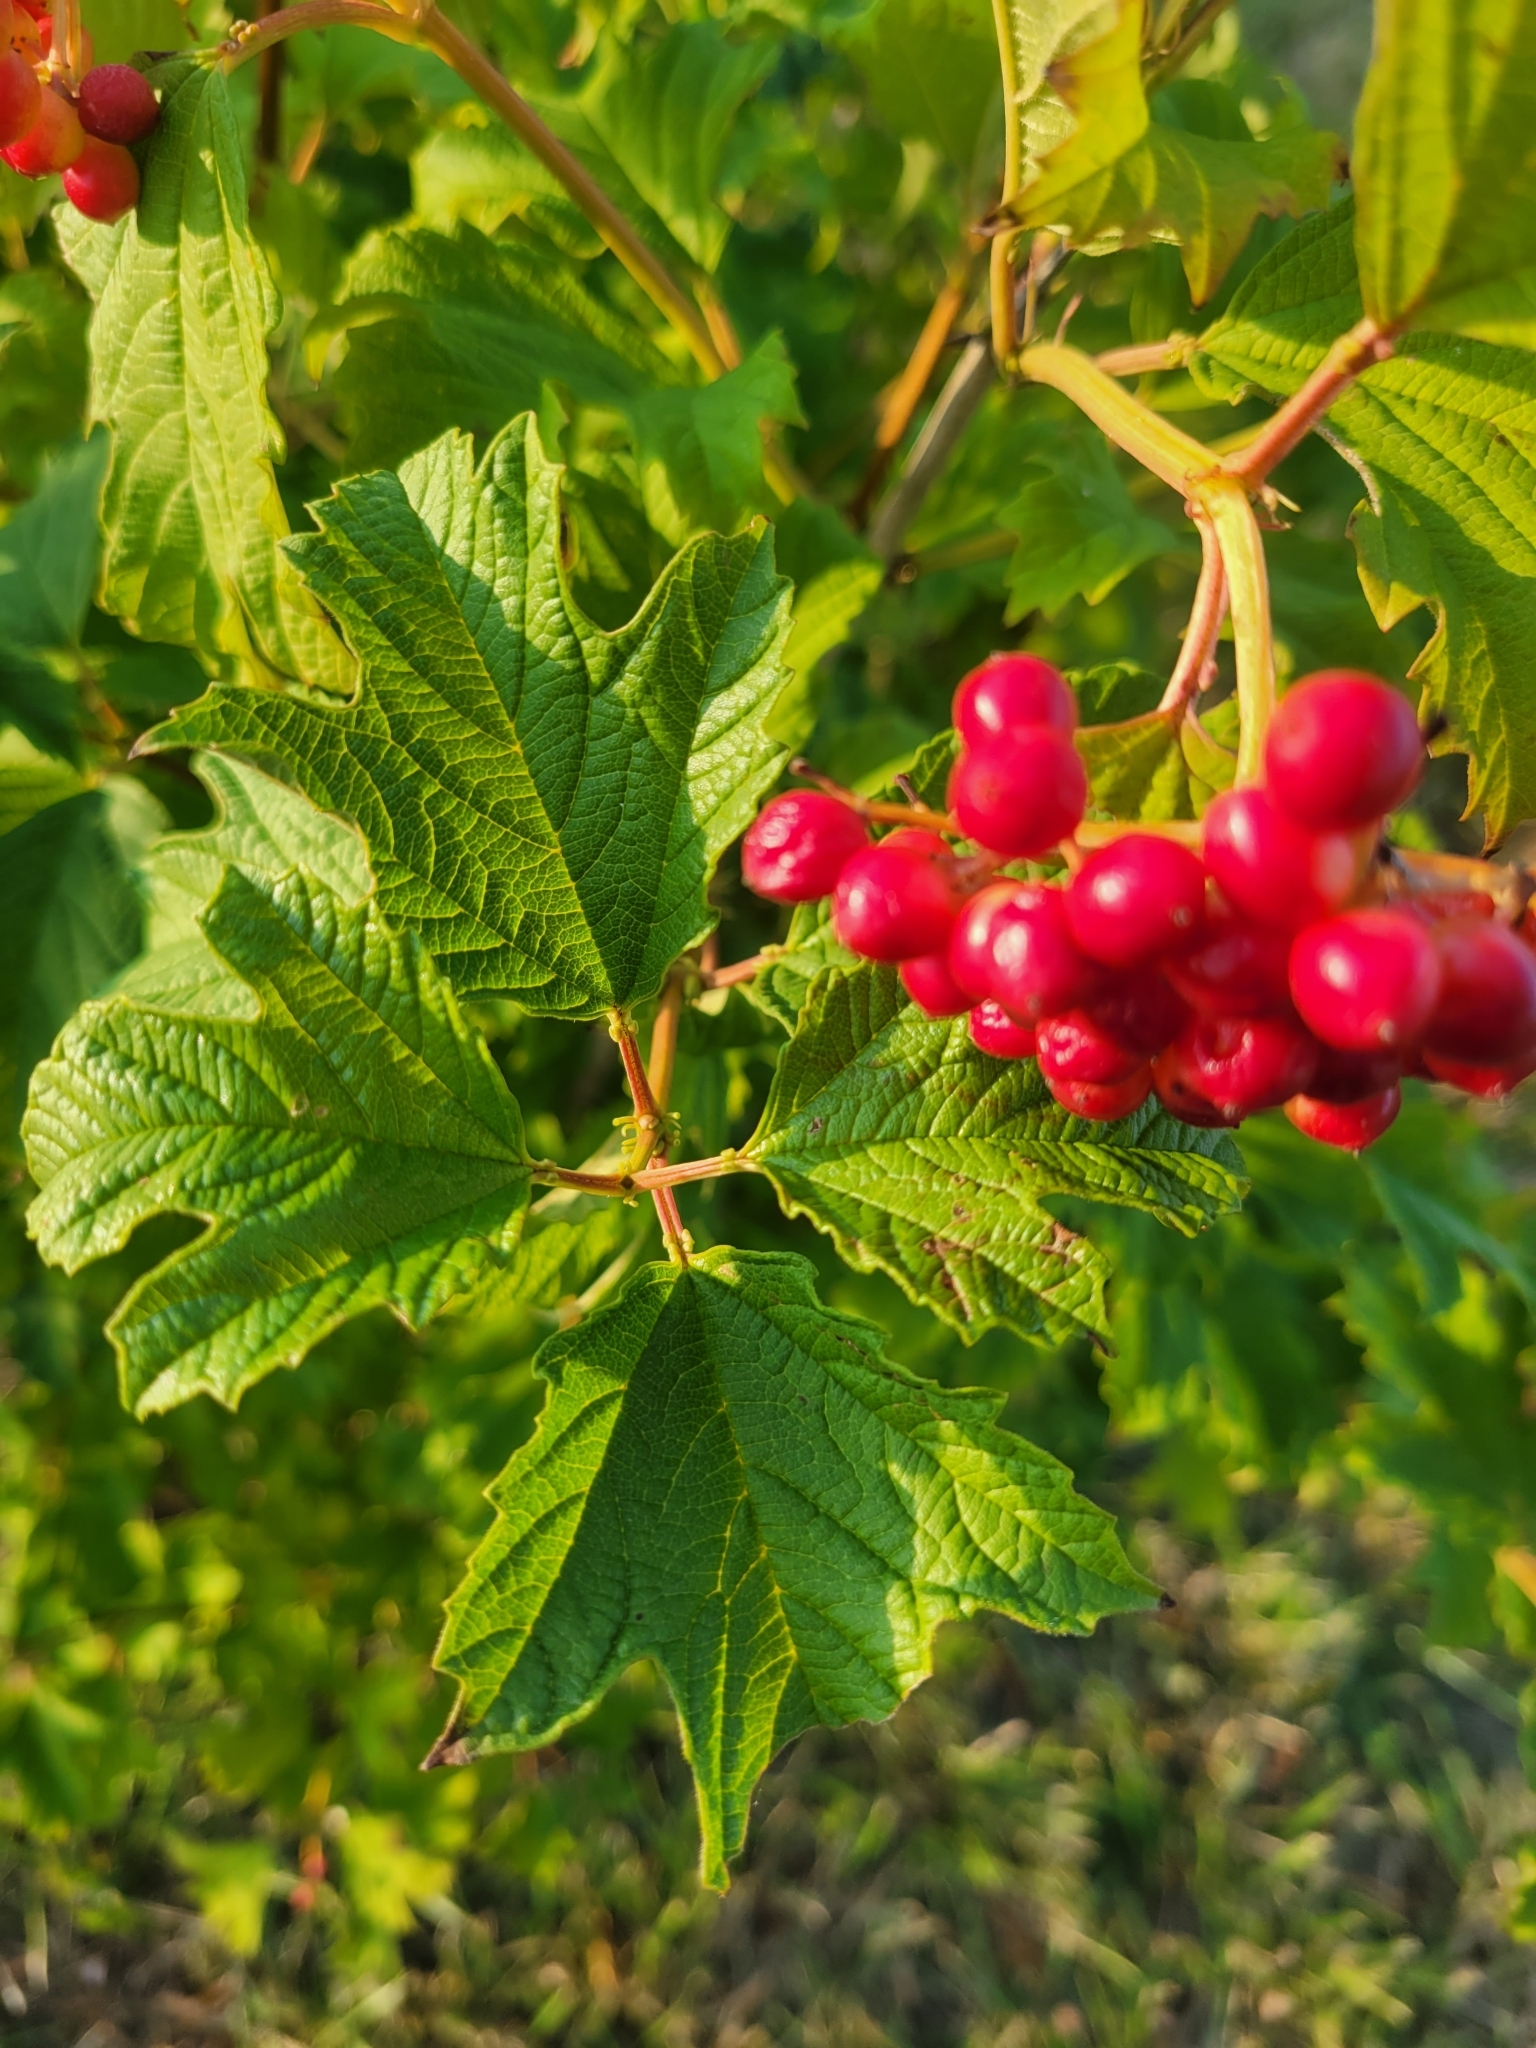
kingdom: Plantae
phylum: Tracheophyta
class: Magnoliopsida
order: Dipsacales
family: Viburnaceae
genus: Viburnum
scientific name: Viburnum opulus
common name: Guelder-rose
